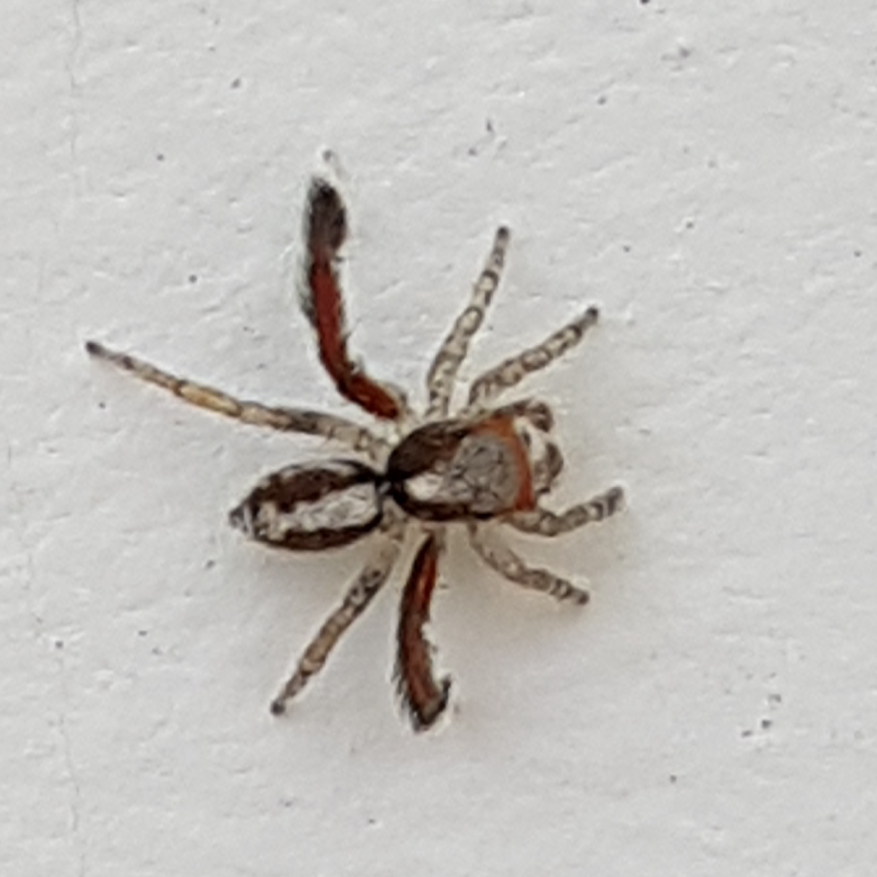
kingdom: Animalia
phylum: Arthropoda
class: Arachnida
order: Araneae
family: Salticidae
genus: Saitis
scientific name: Saitis barbipes
